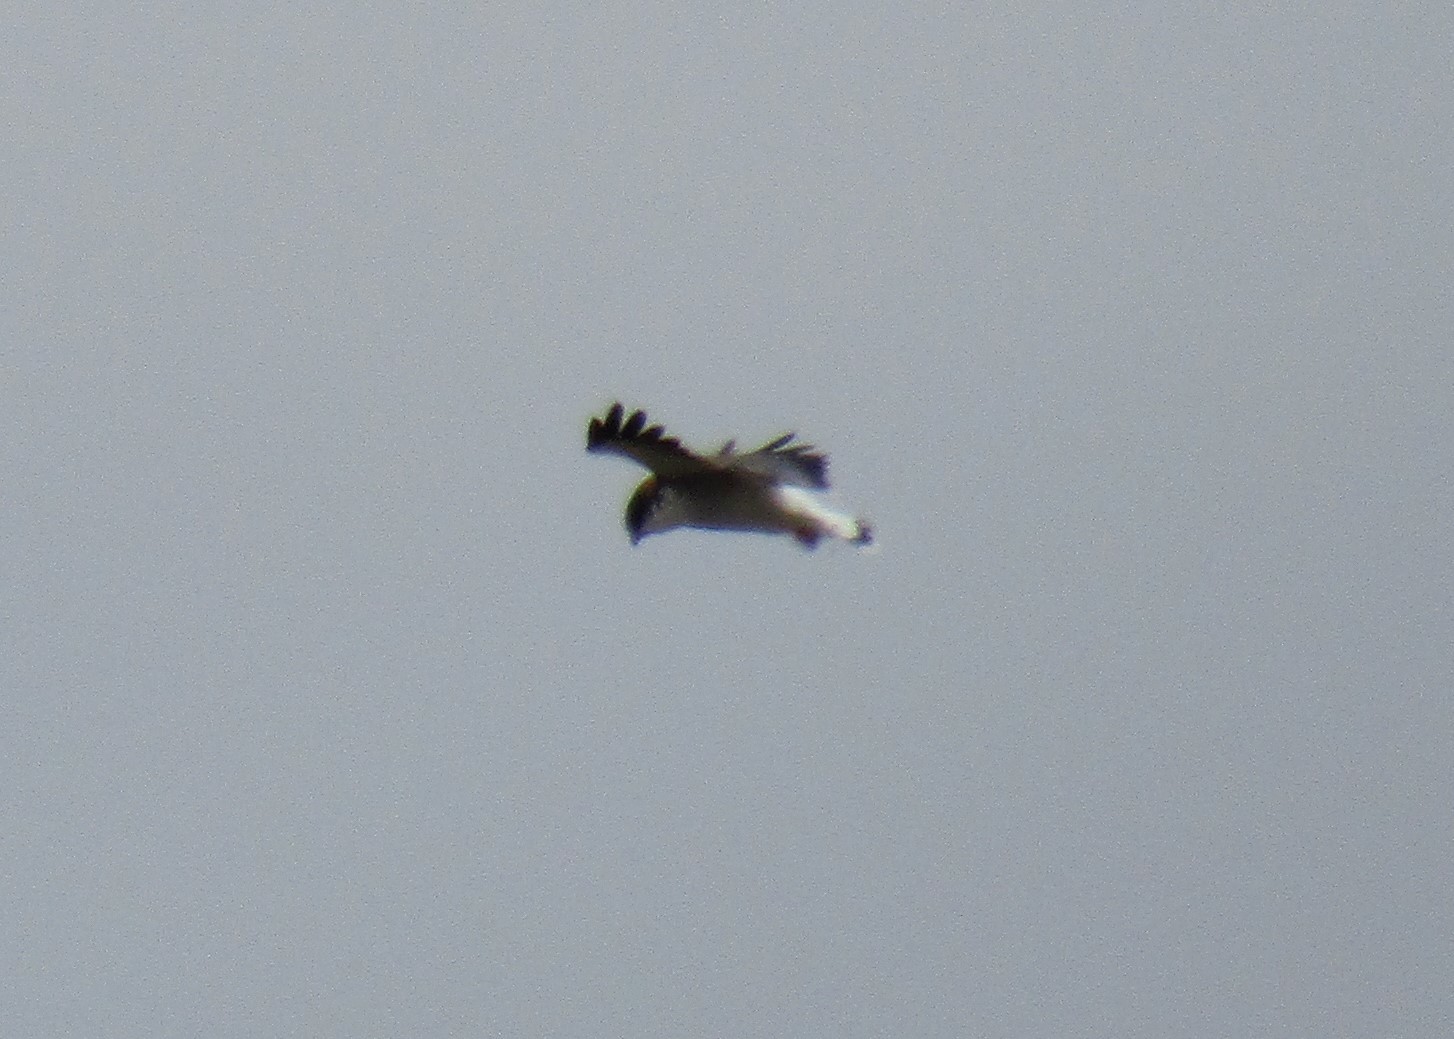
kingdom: Animalia
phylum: Chordata
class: Aves
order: Accipitriformes
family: Accipitridae
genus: Buteo
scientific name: Buteo polyosoma
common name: Variable hawk
